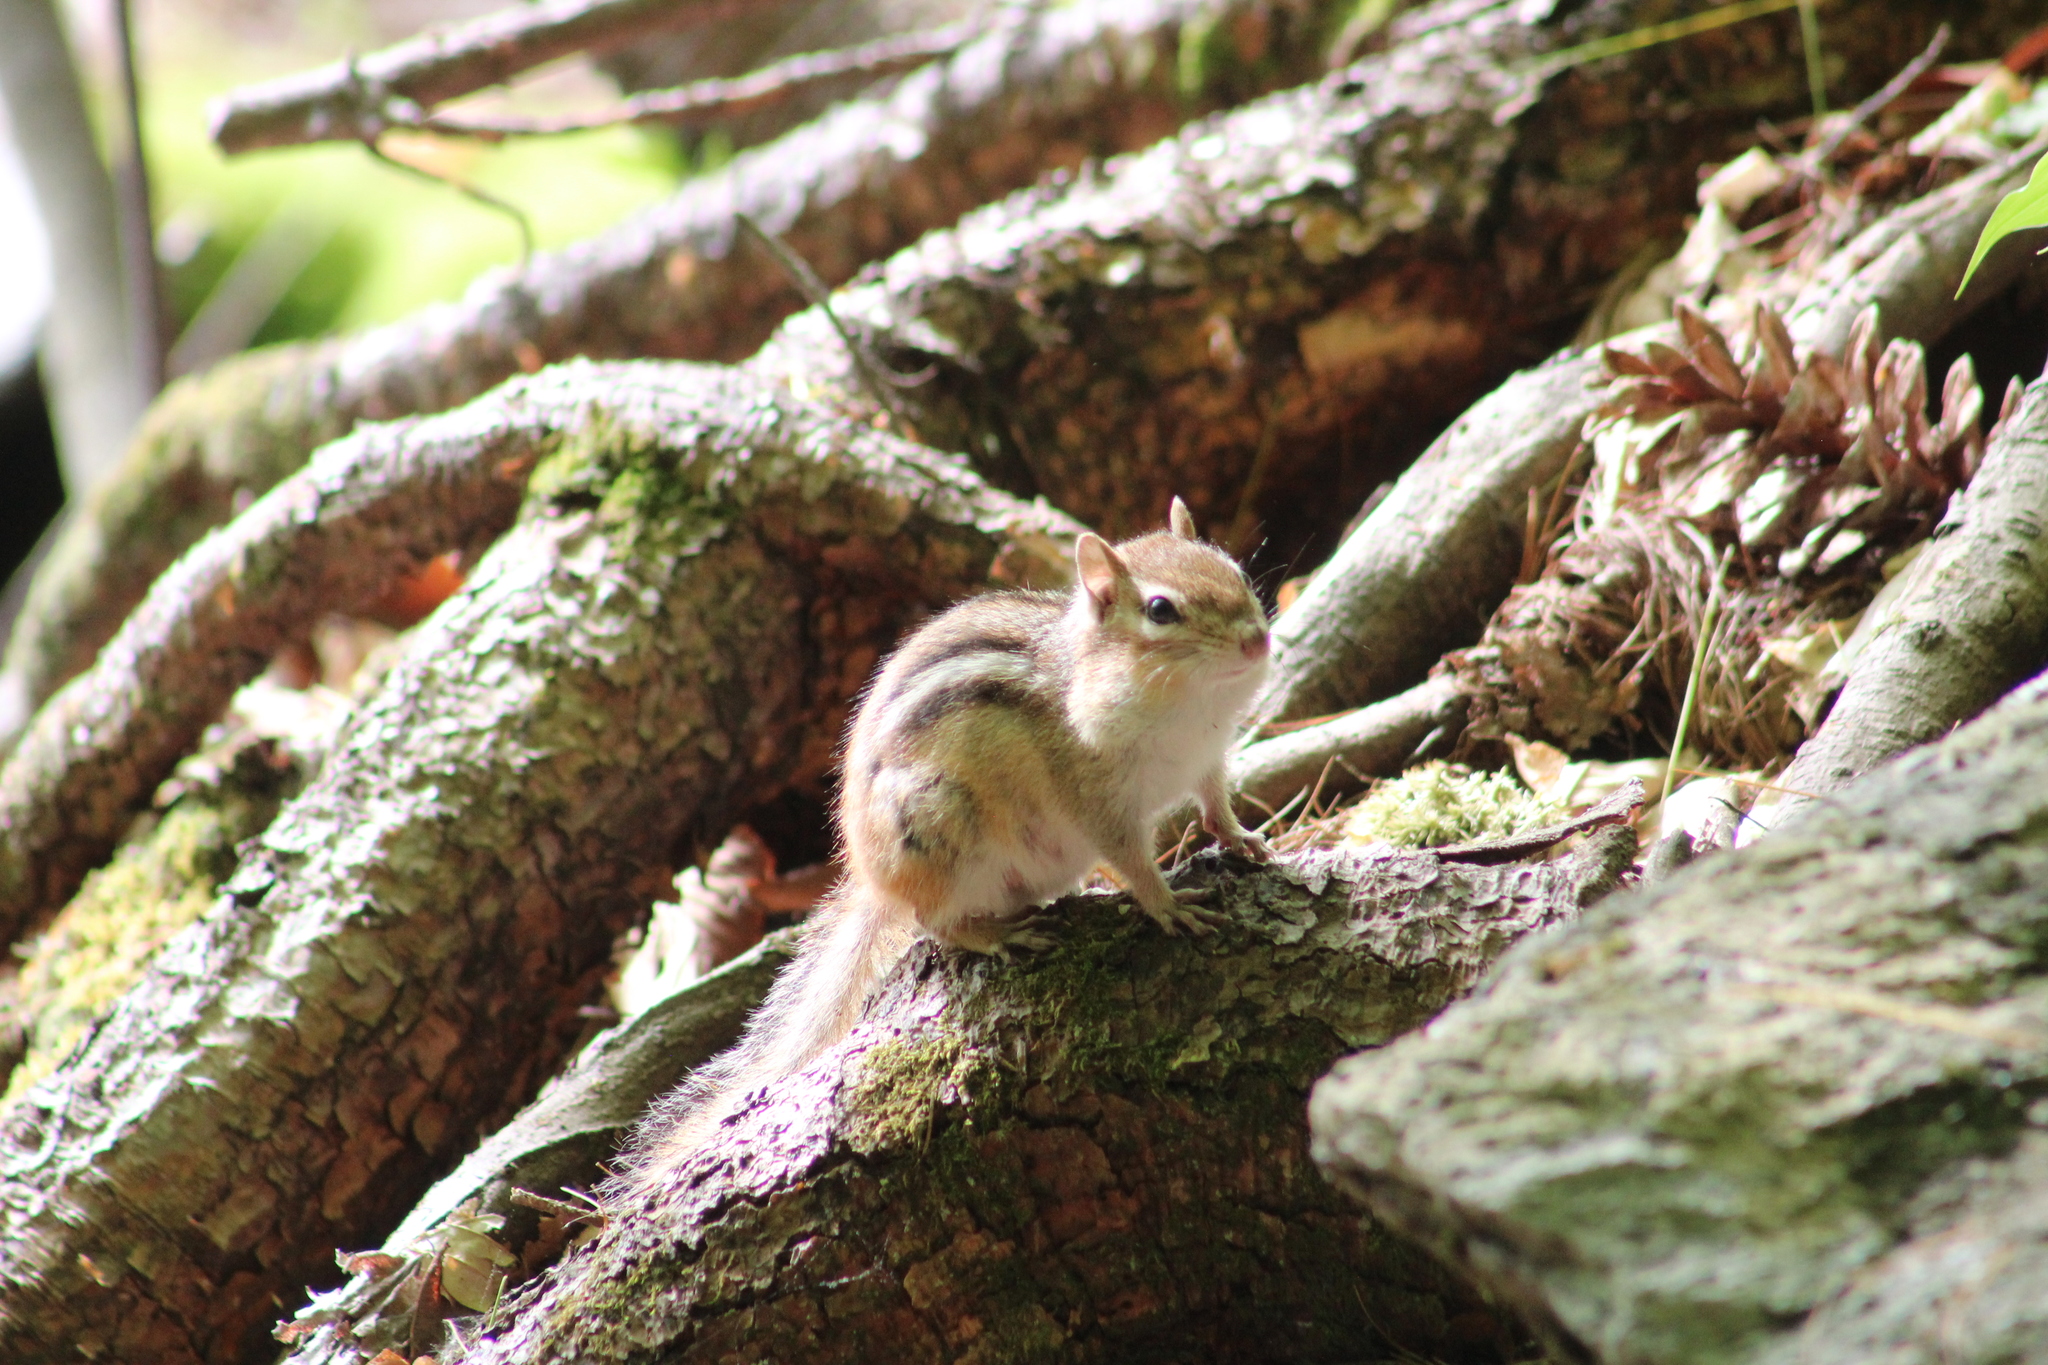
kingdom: Animalia
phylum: Chordata
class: Mammalia
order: Rodentia
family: Sciuridae
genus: Tamias
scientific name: Tamias striatus
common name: Eastern chipmunk
